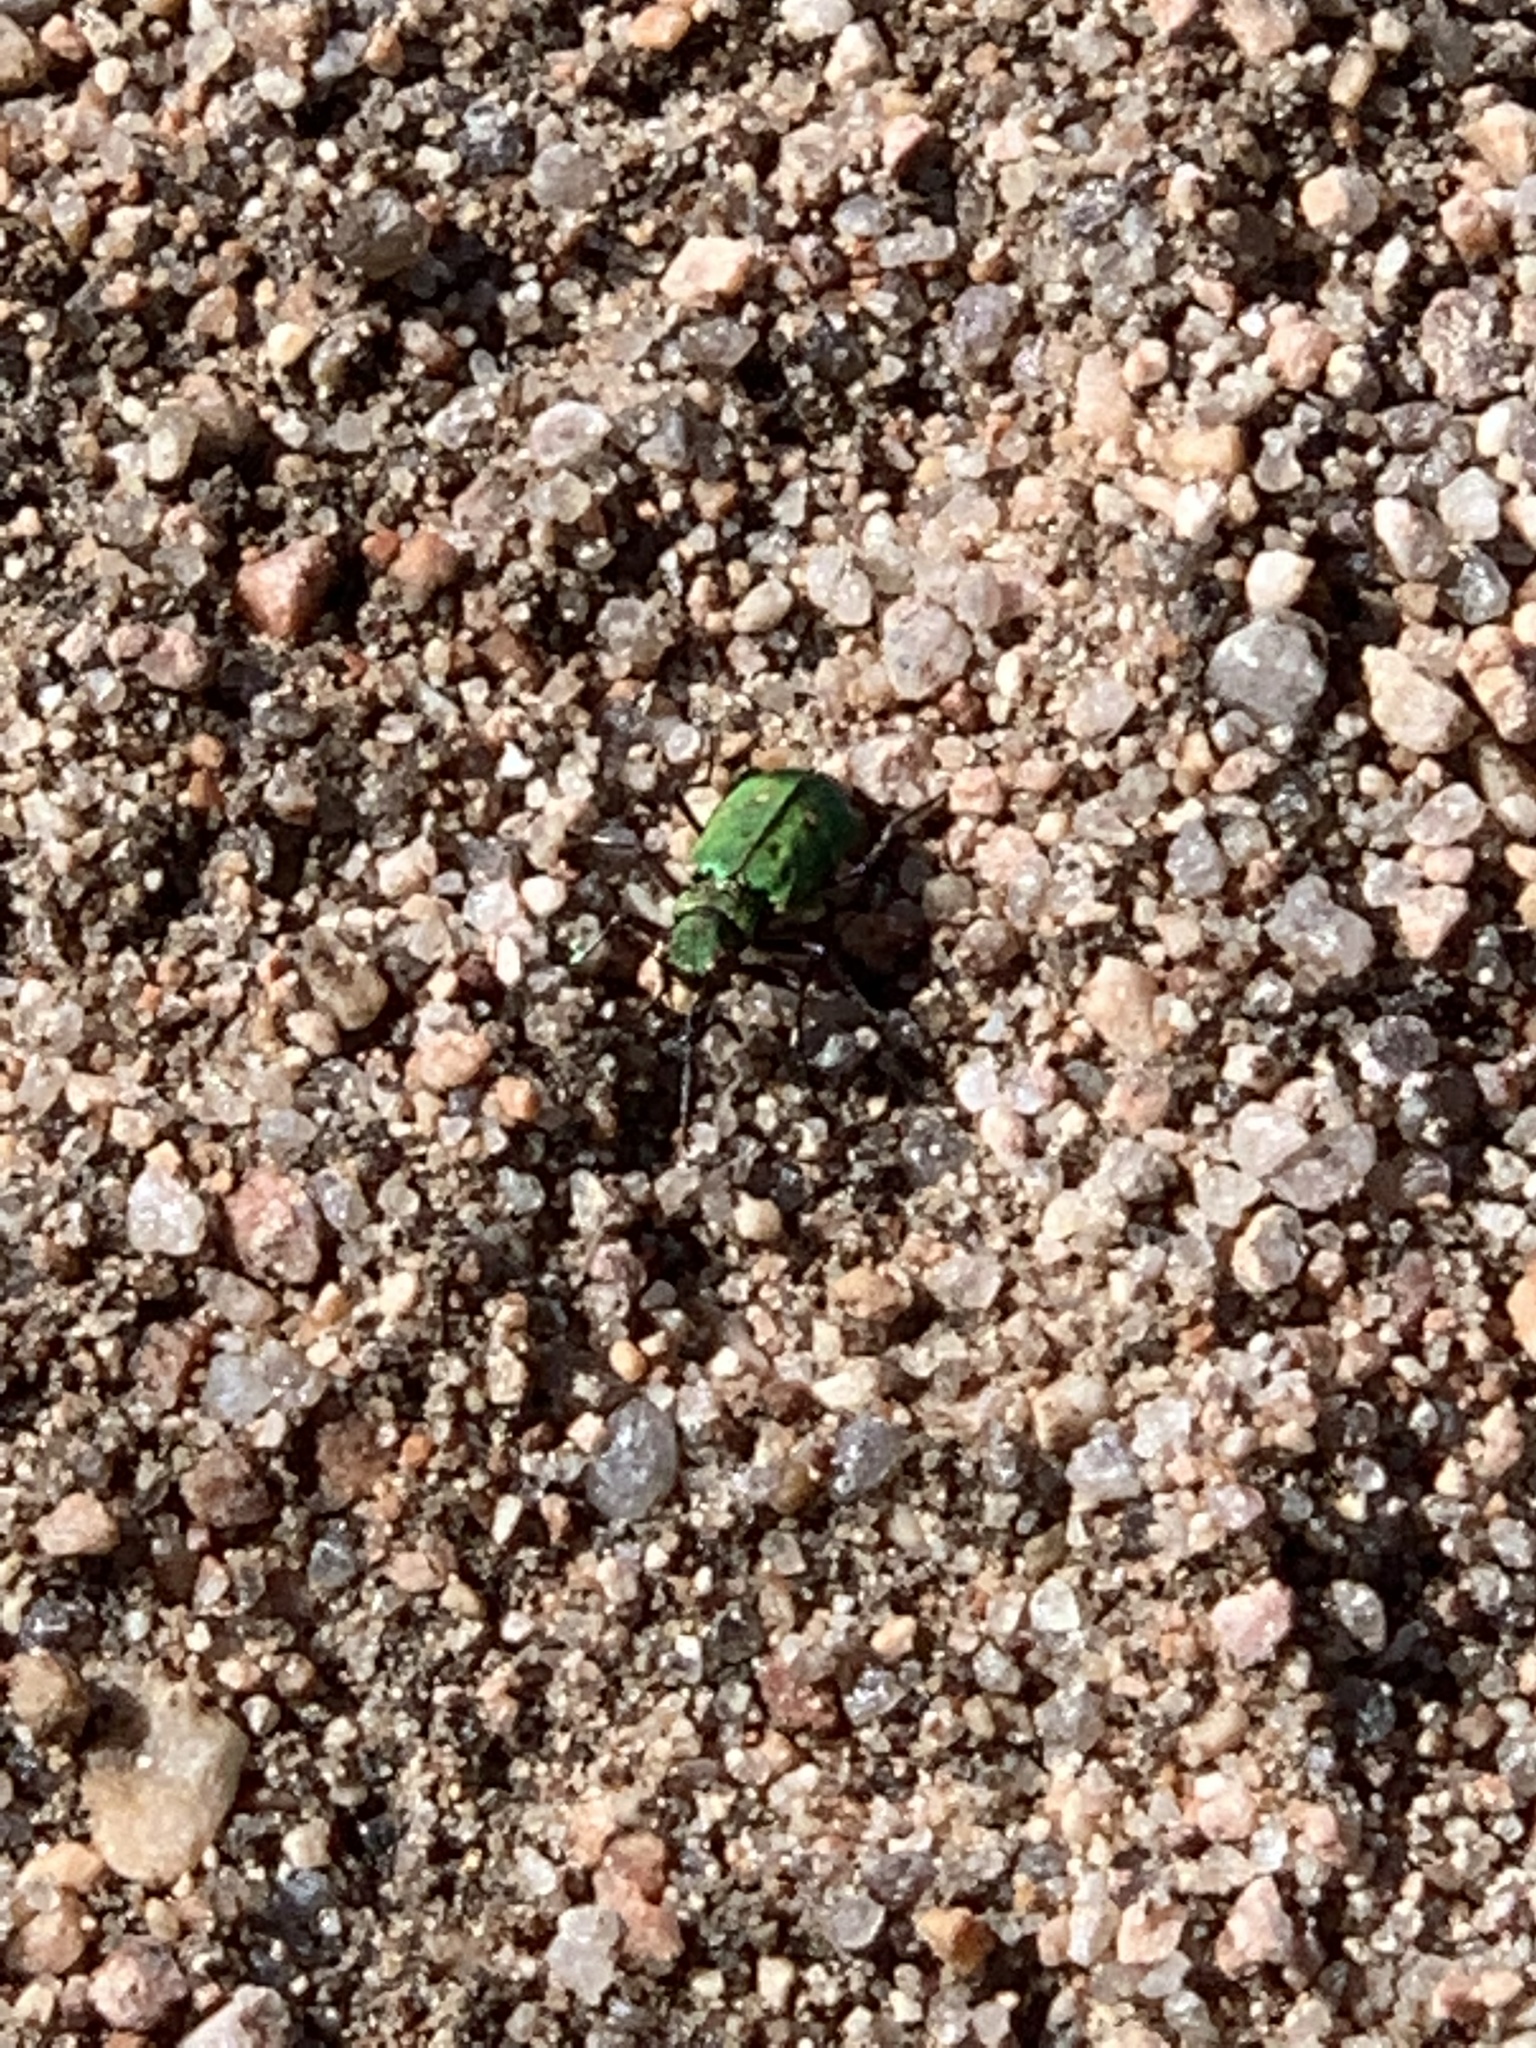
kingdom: Animalia
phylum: Arthropoda
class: Insecta
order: Coleoptera
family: Carabidae
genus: Cicindela
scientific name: Cicindela campestris
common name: Common tiger beetle
